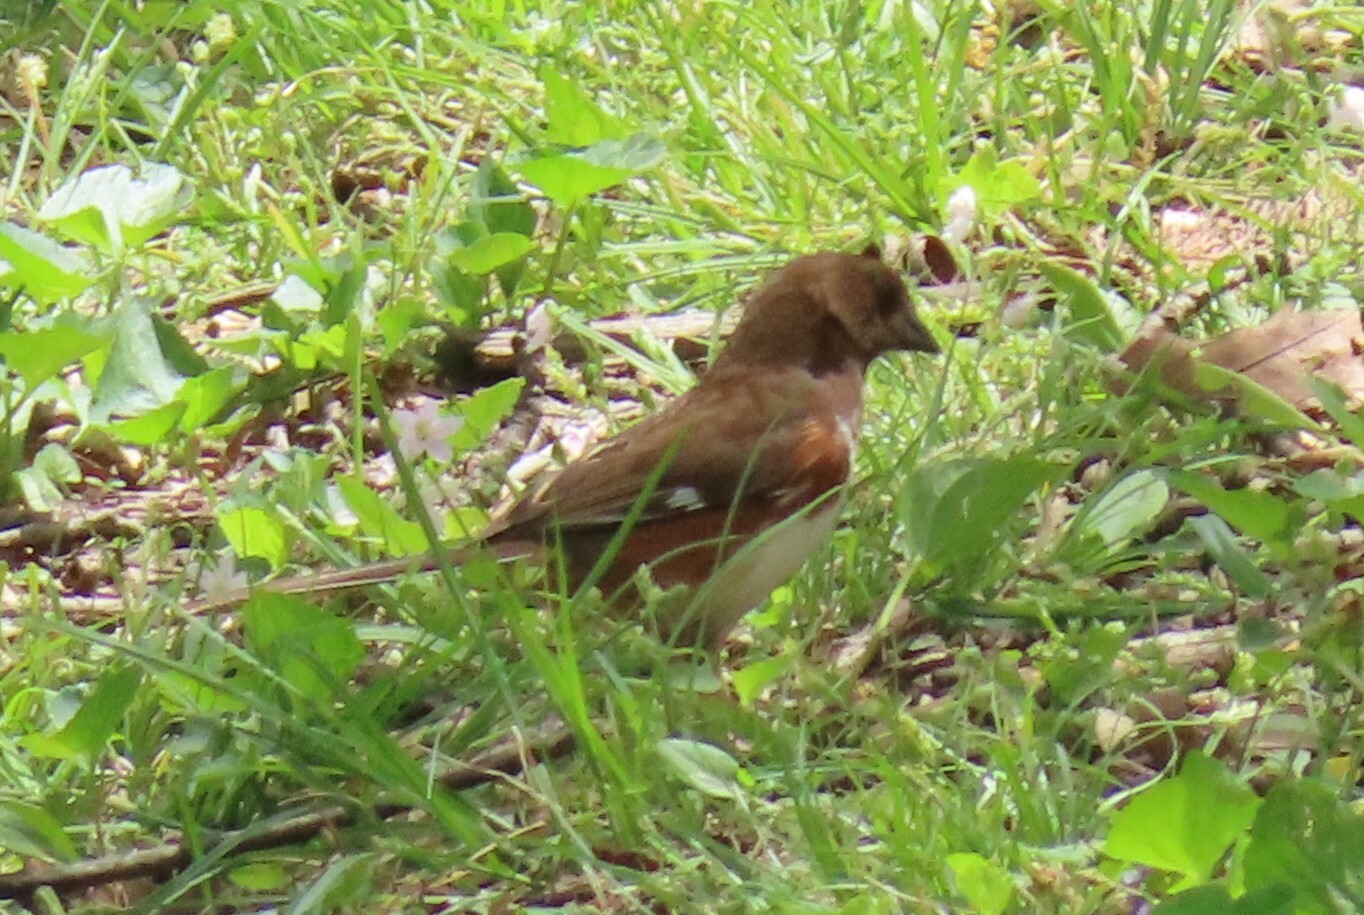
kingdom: Animalia
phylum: Chordata
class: Aves
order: Passeriformes
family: Passerellidae
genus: Pipilo
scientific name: Pipilo erythrophthalmus
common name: Eastern towhee
